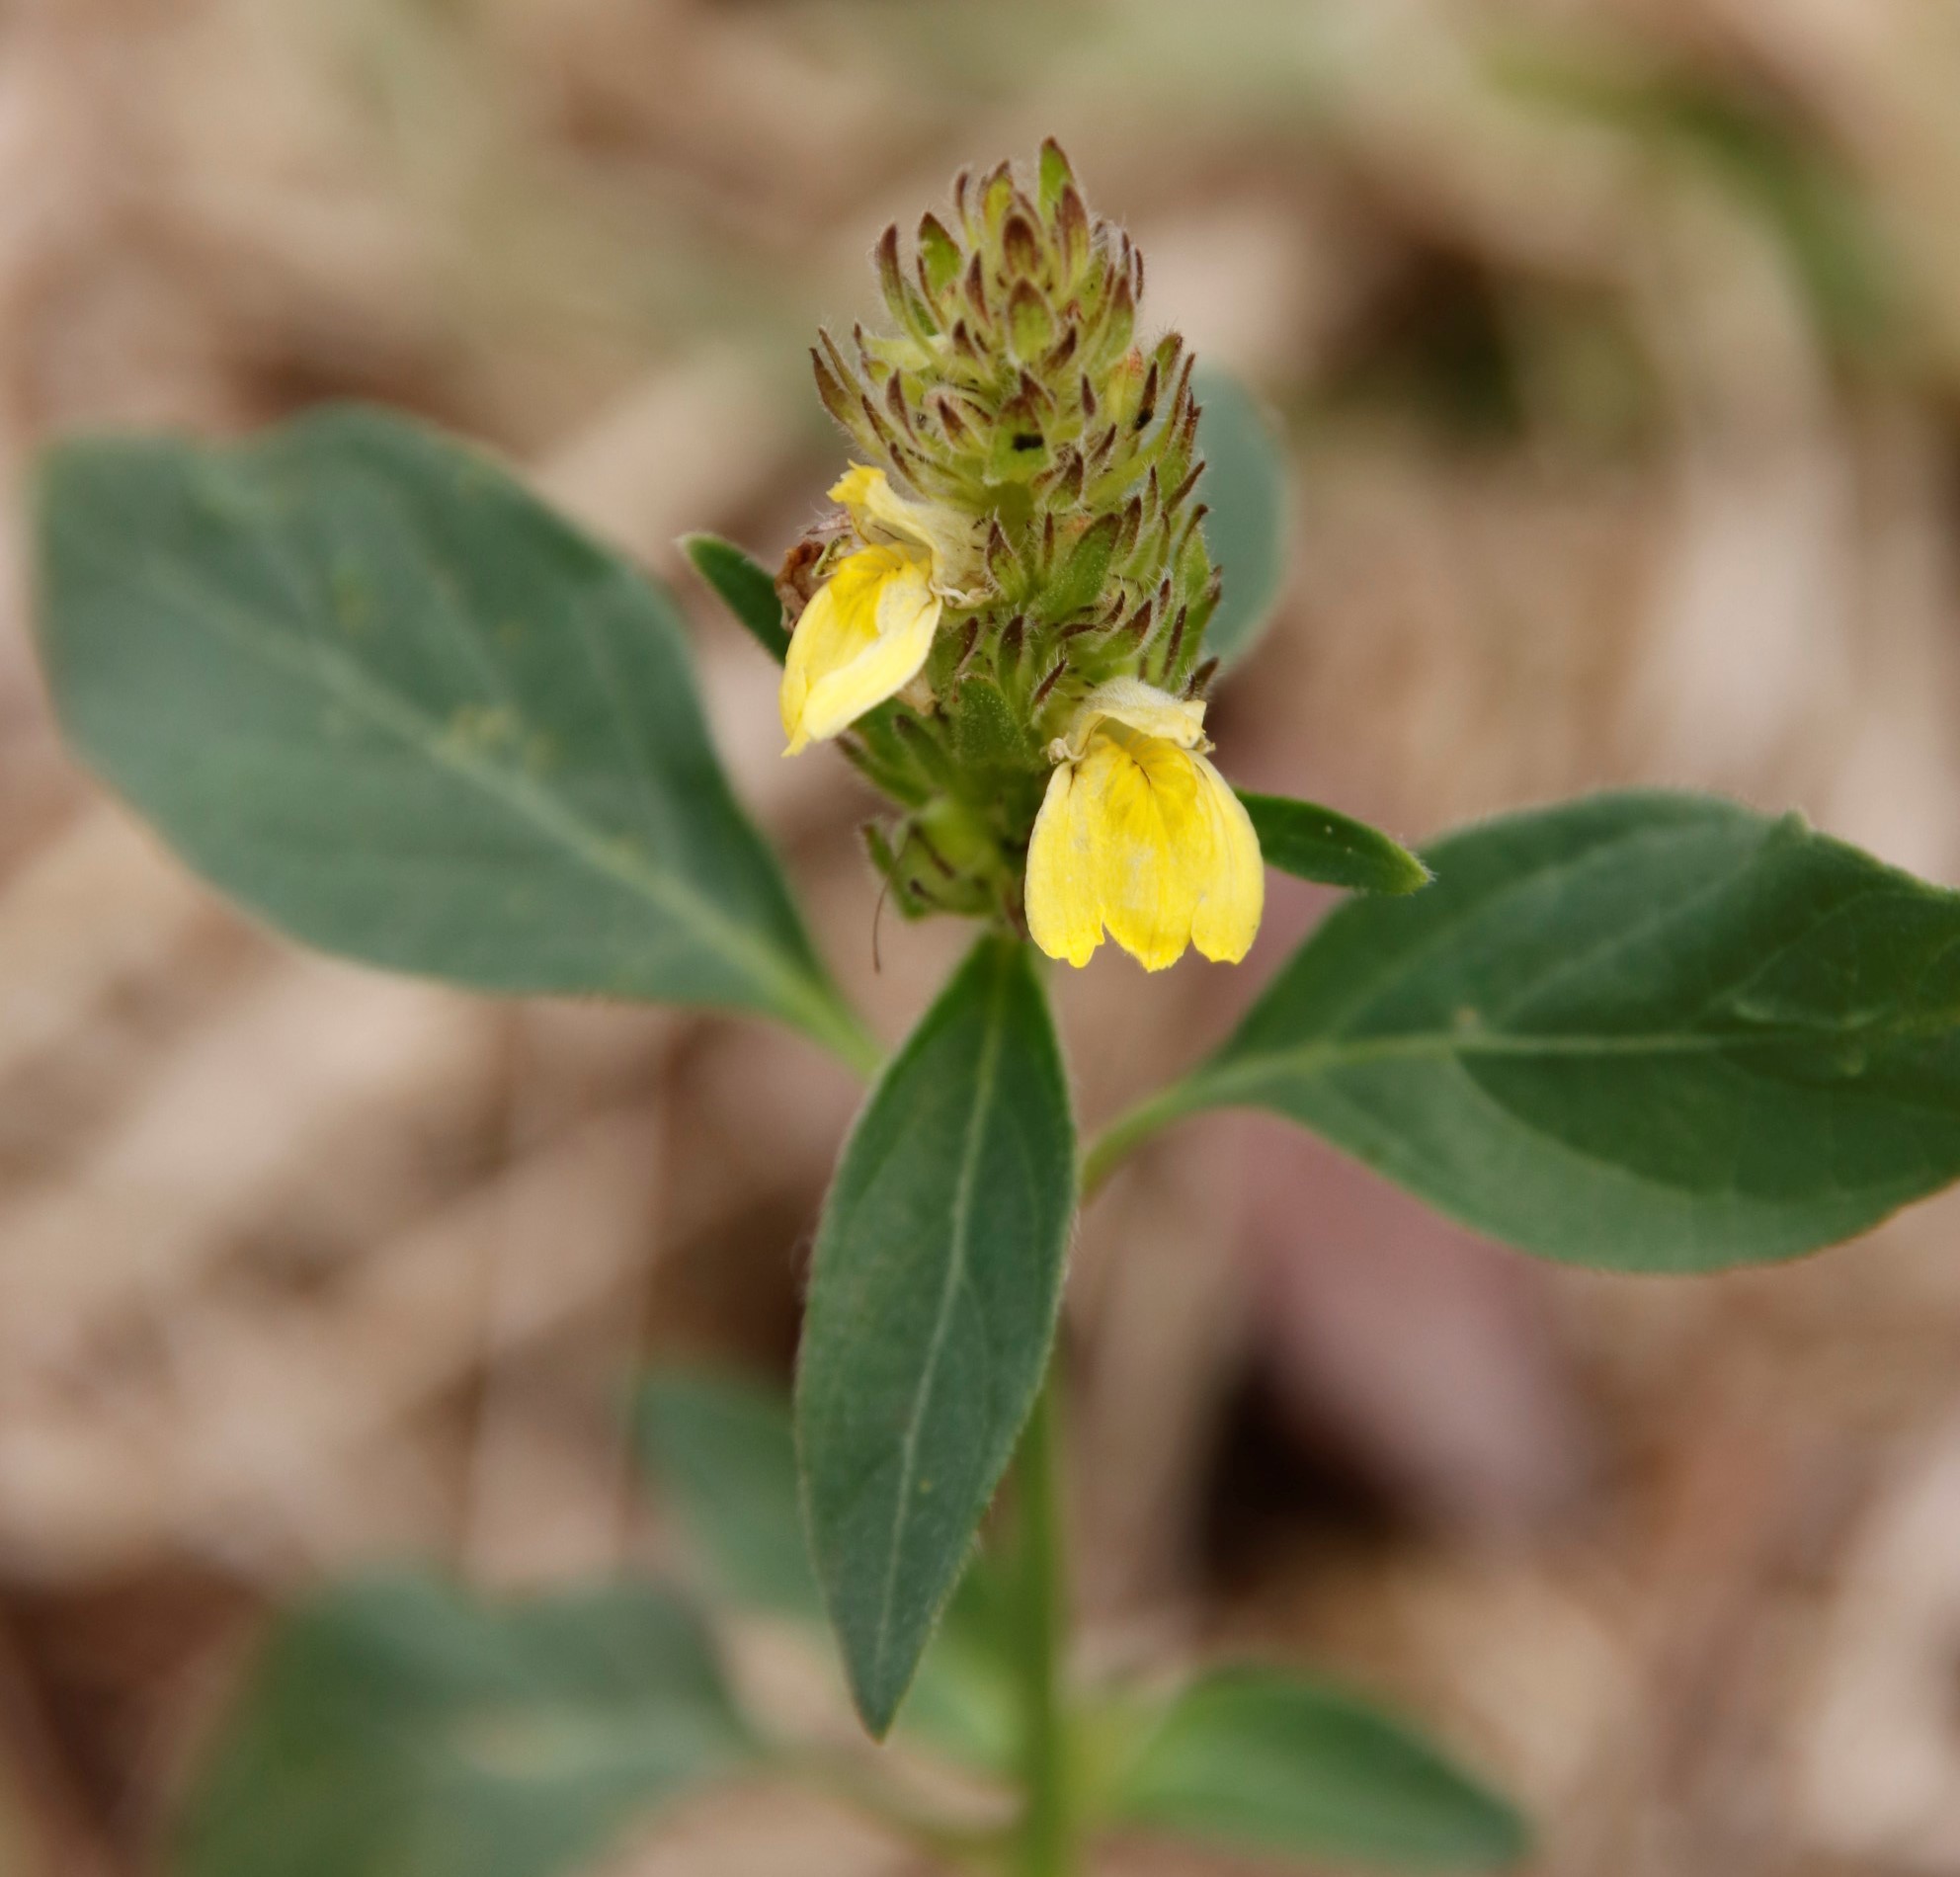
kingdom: Plantae
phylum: Tracheophyta
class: Magnoliopsida
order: Lamiales
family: Acanthaceae
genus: Justicia
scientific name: Justicia flava
